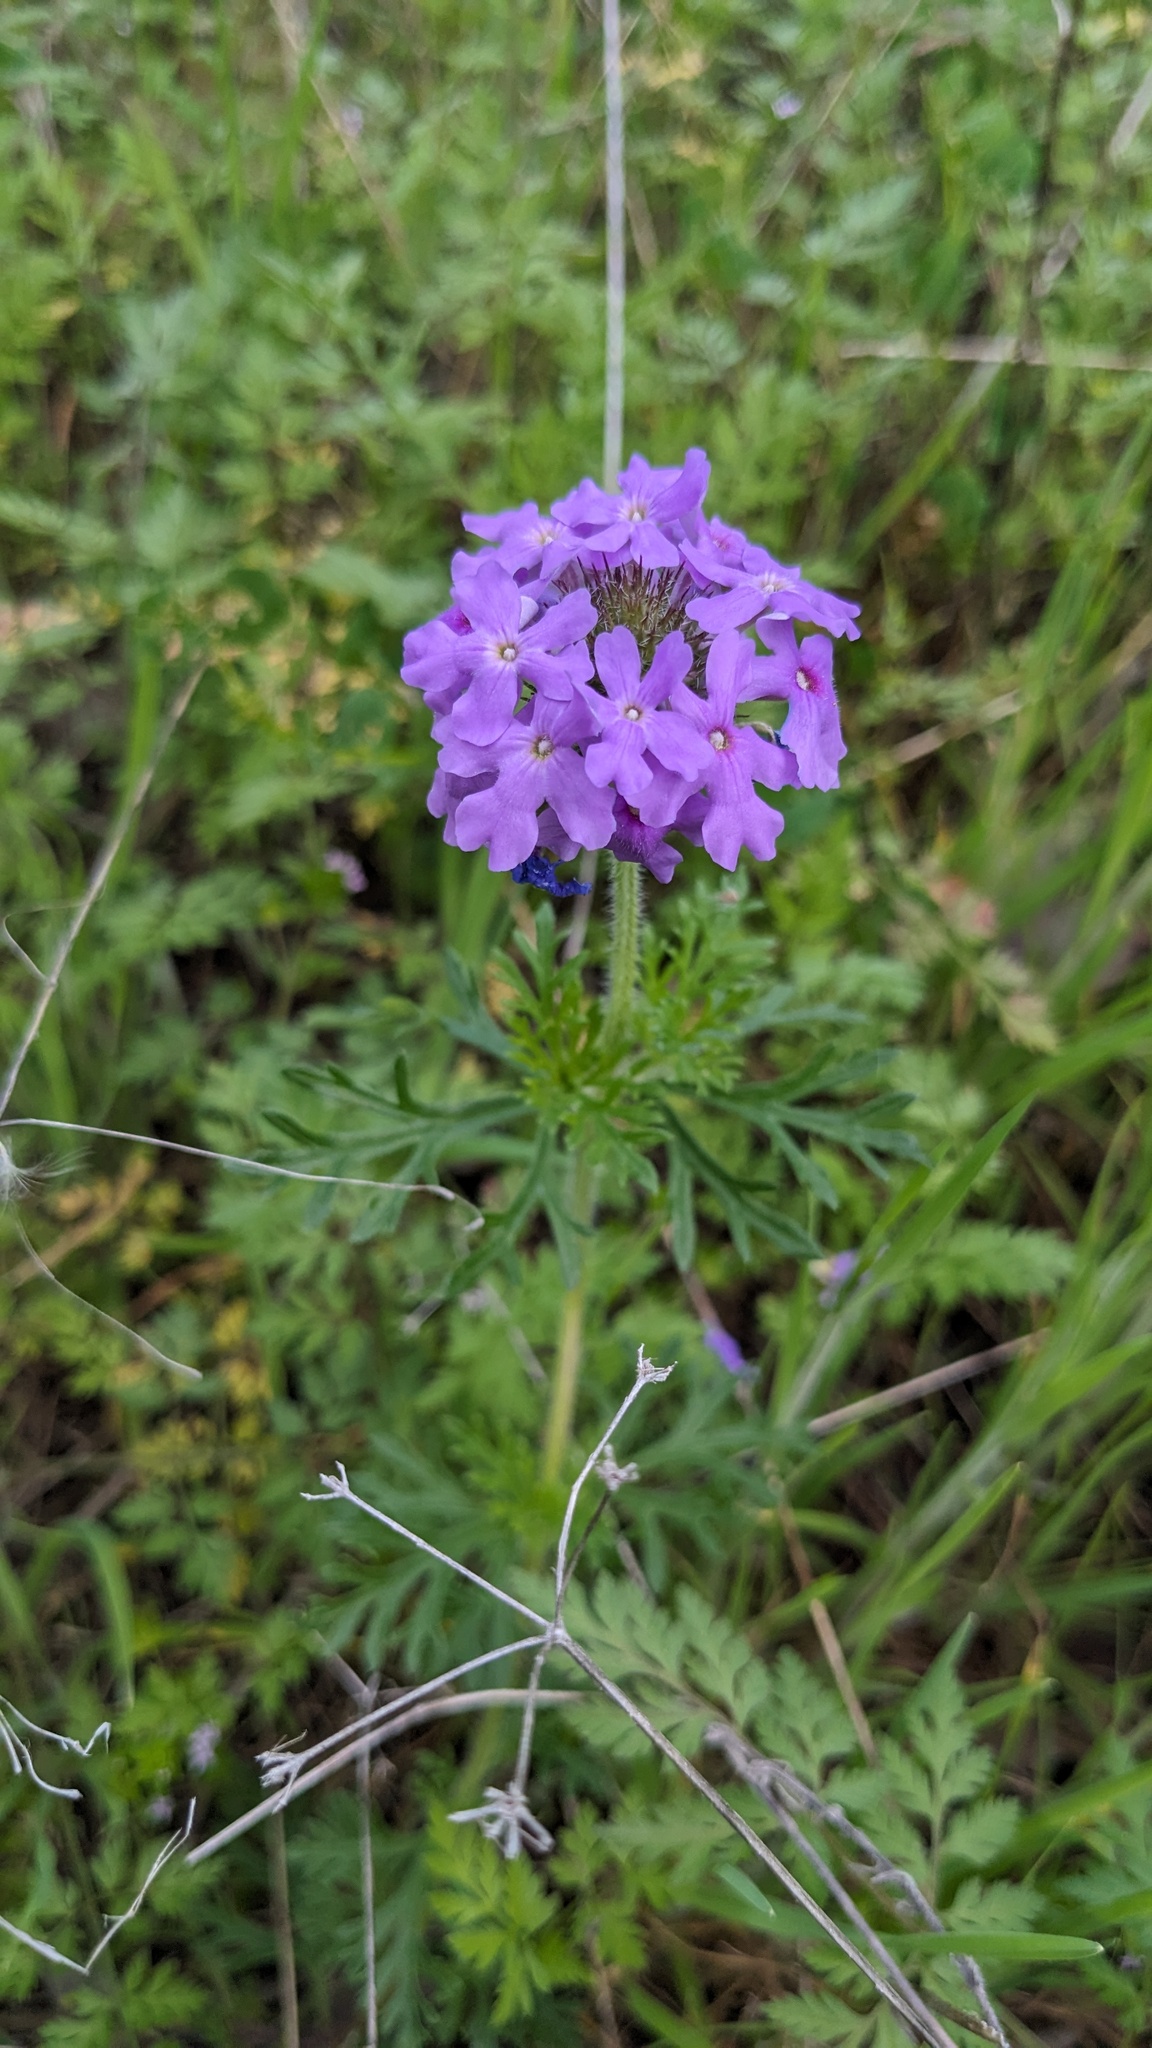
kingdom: Plantae
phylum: Tracheophyta
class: Magnoliopsida
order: Lamiales
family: Verbenaceae
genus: Verbena
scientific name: Verbena bipinnatifida
